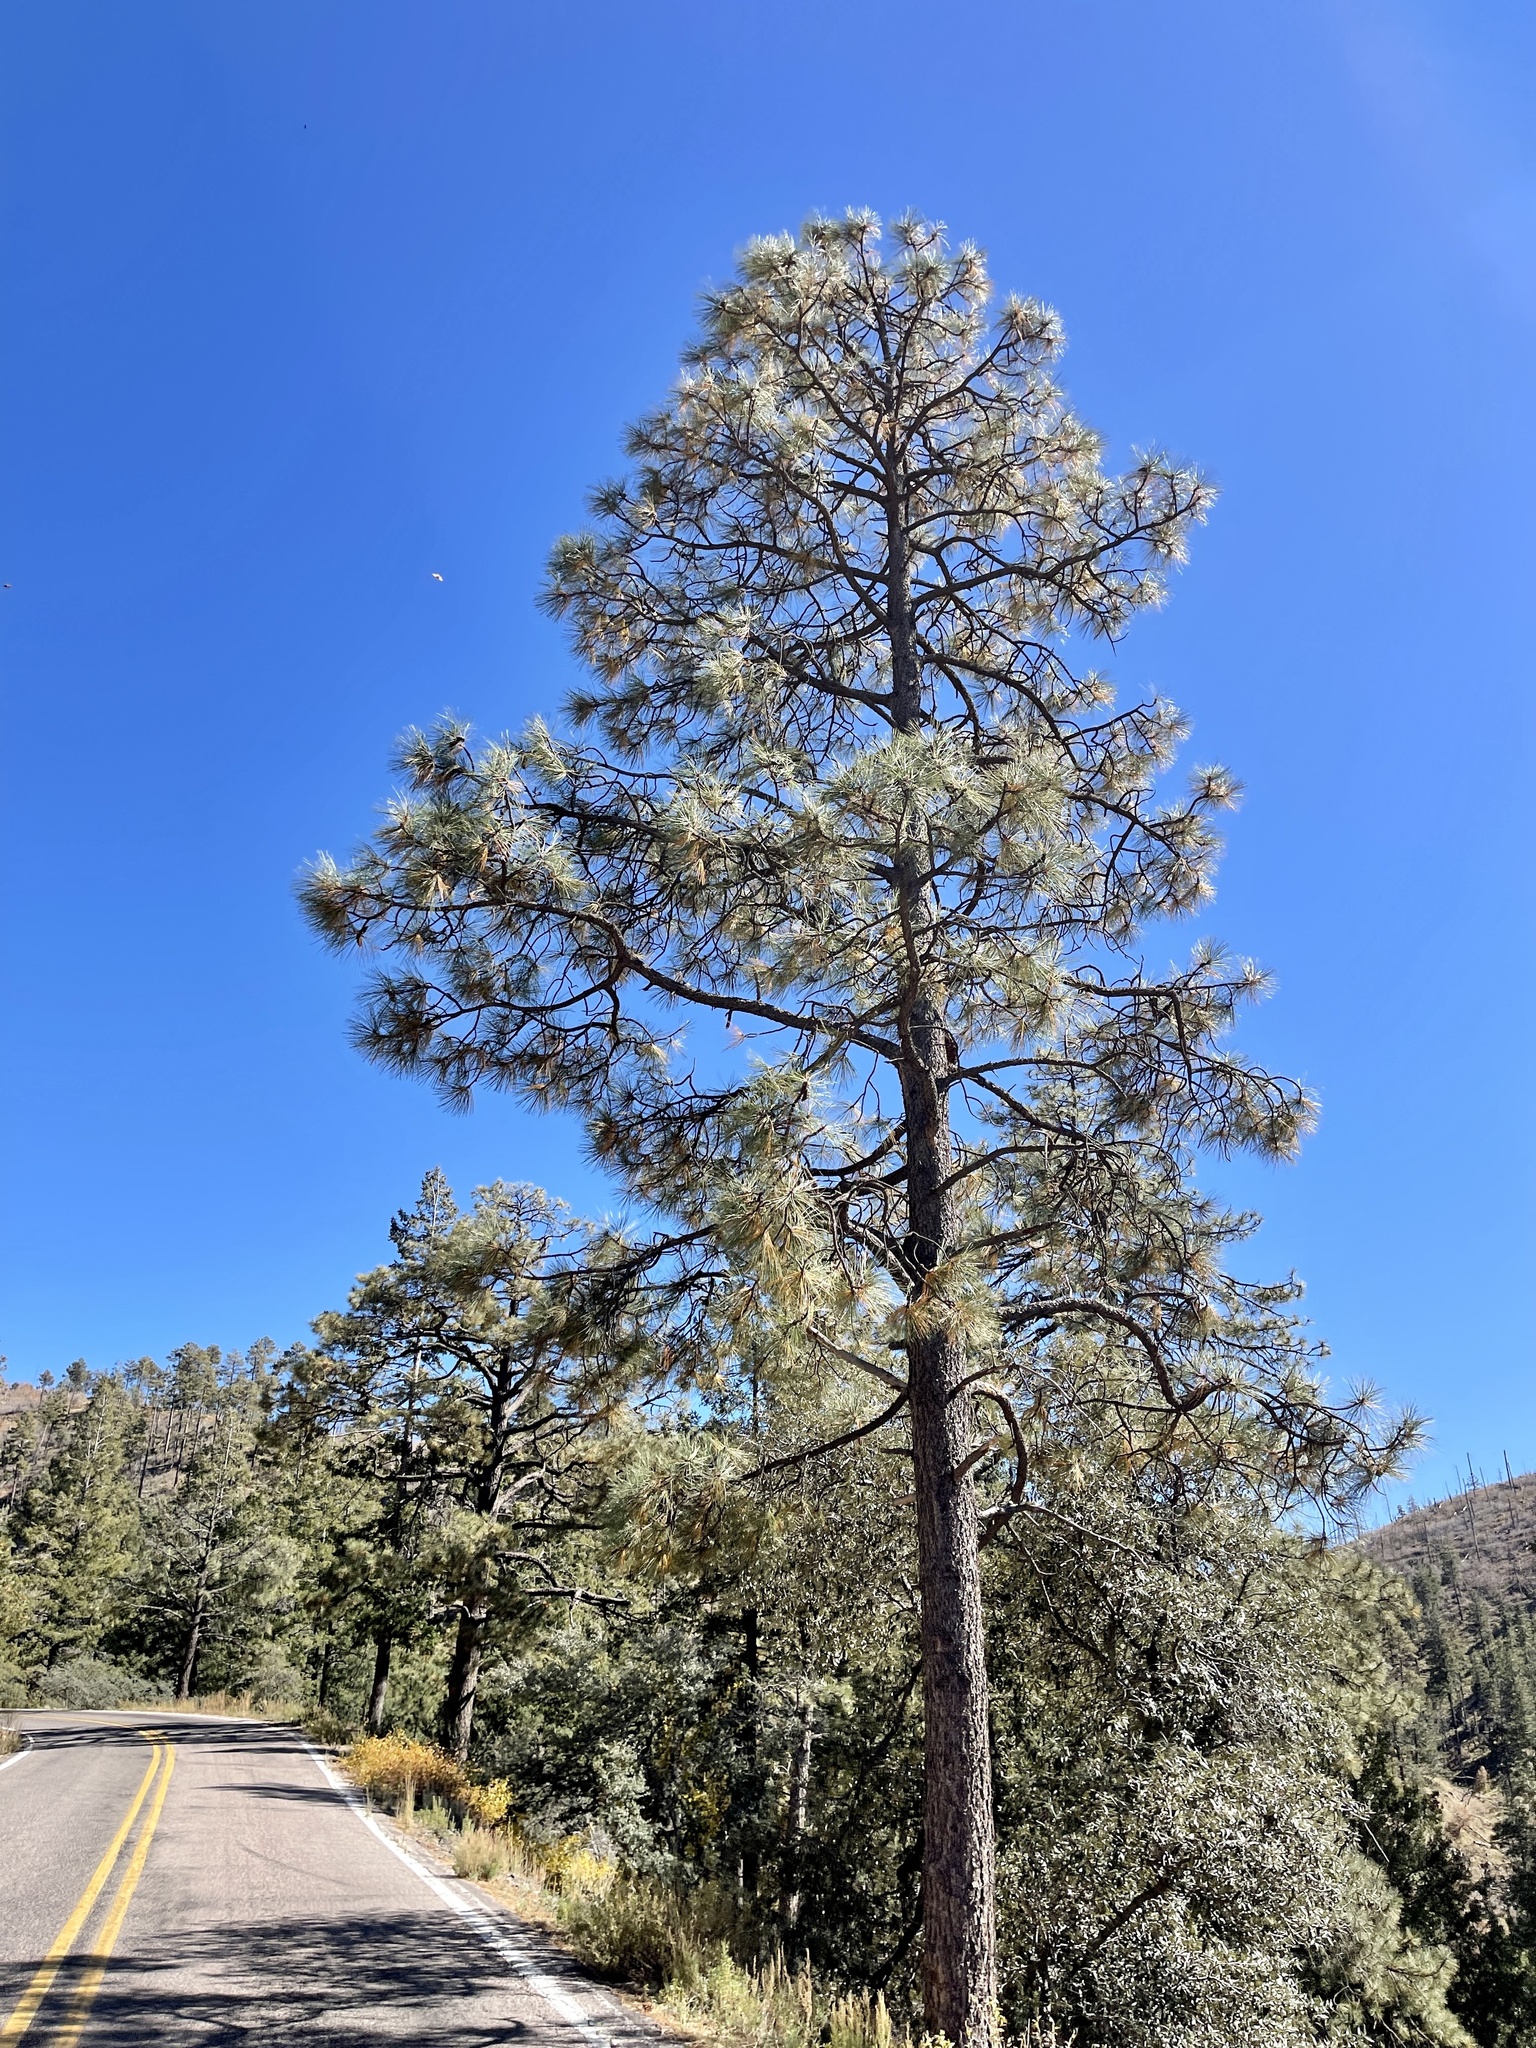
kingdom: Plantae
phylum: Tracheophyta
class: Pinopsida
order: Pinales
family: Pinaceae
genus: Pinus
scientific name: Pinus ponderosa
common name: Western yellow-pine
